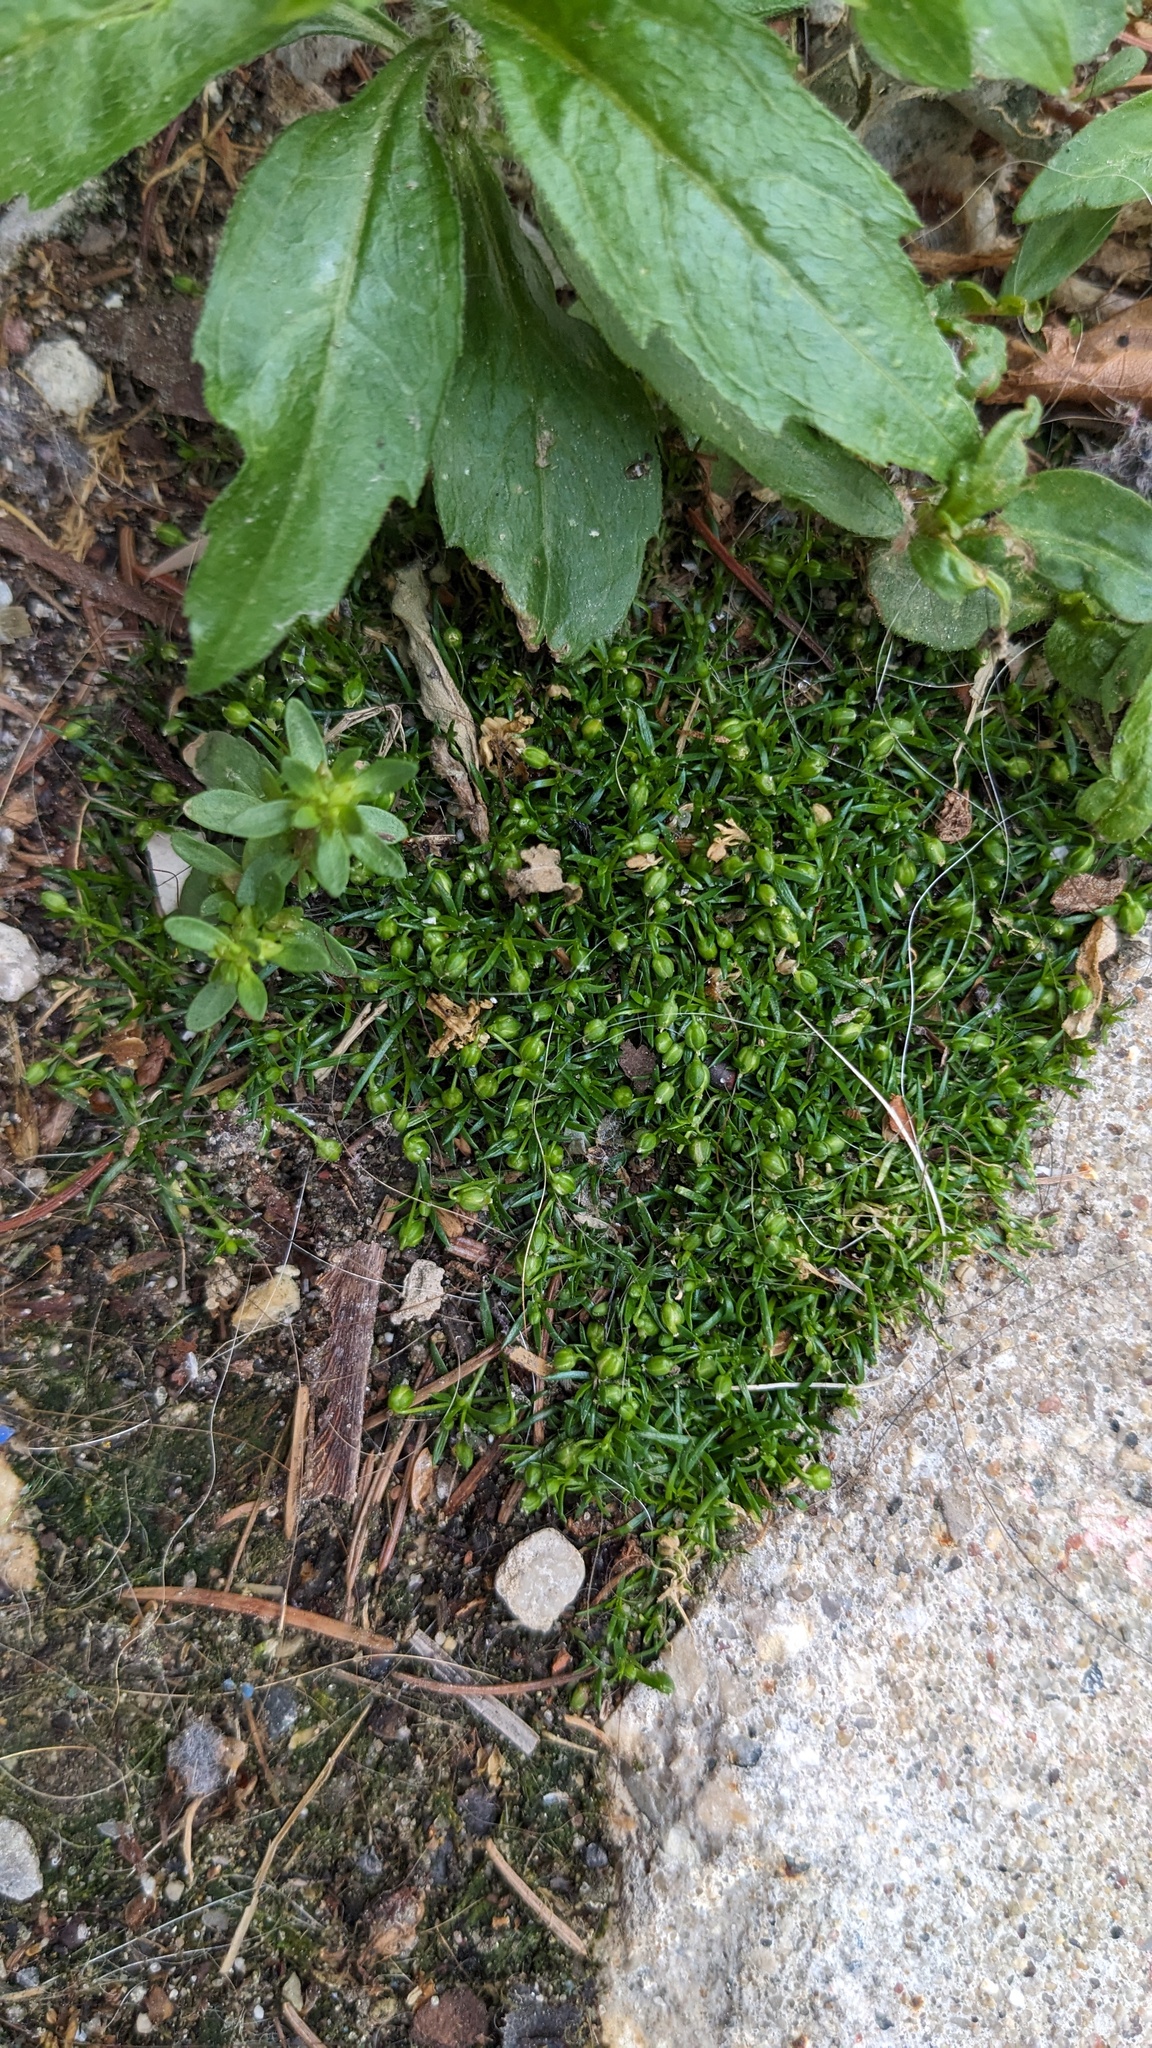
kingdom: Plantae
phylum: Tracheophyta
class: Magnoliopsida
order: Caryophyllales
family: Caryophyllaceae
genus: Sagina
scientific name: Sagina procumbens
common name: Procumbent pearlwort
